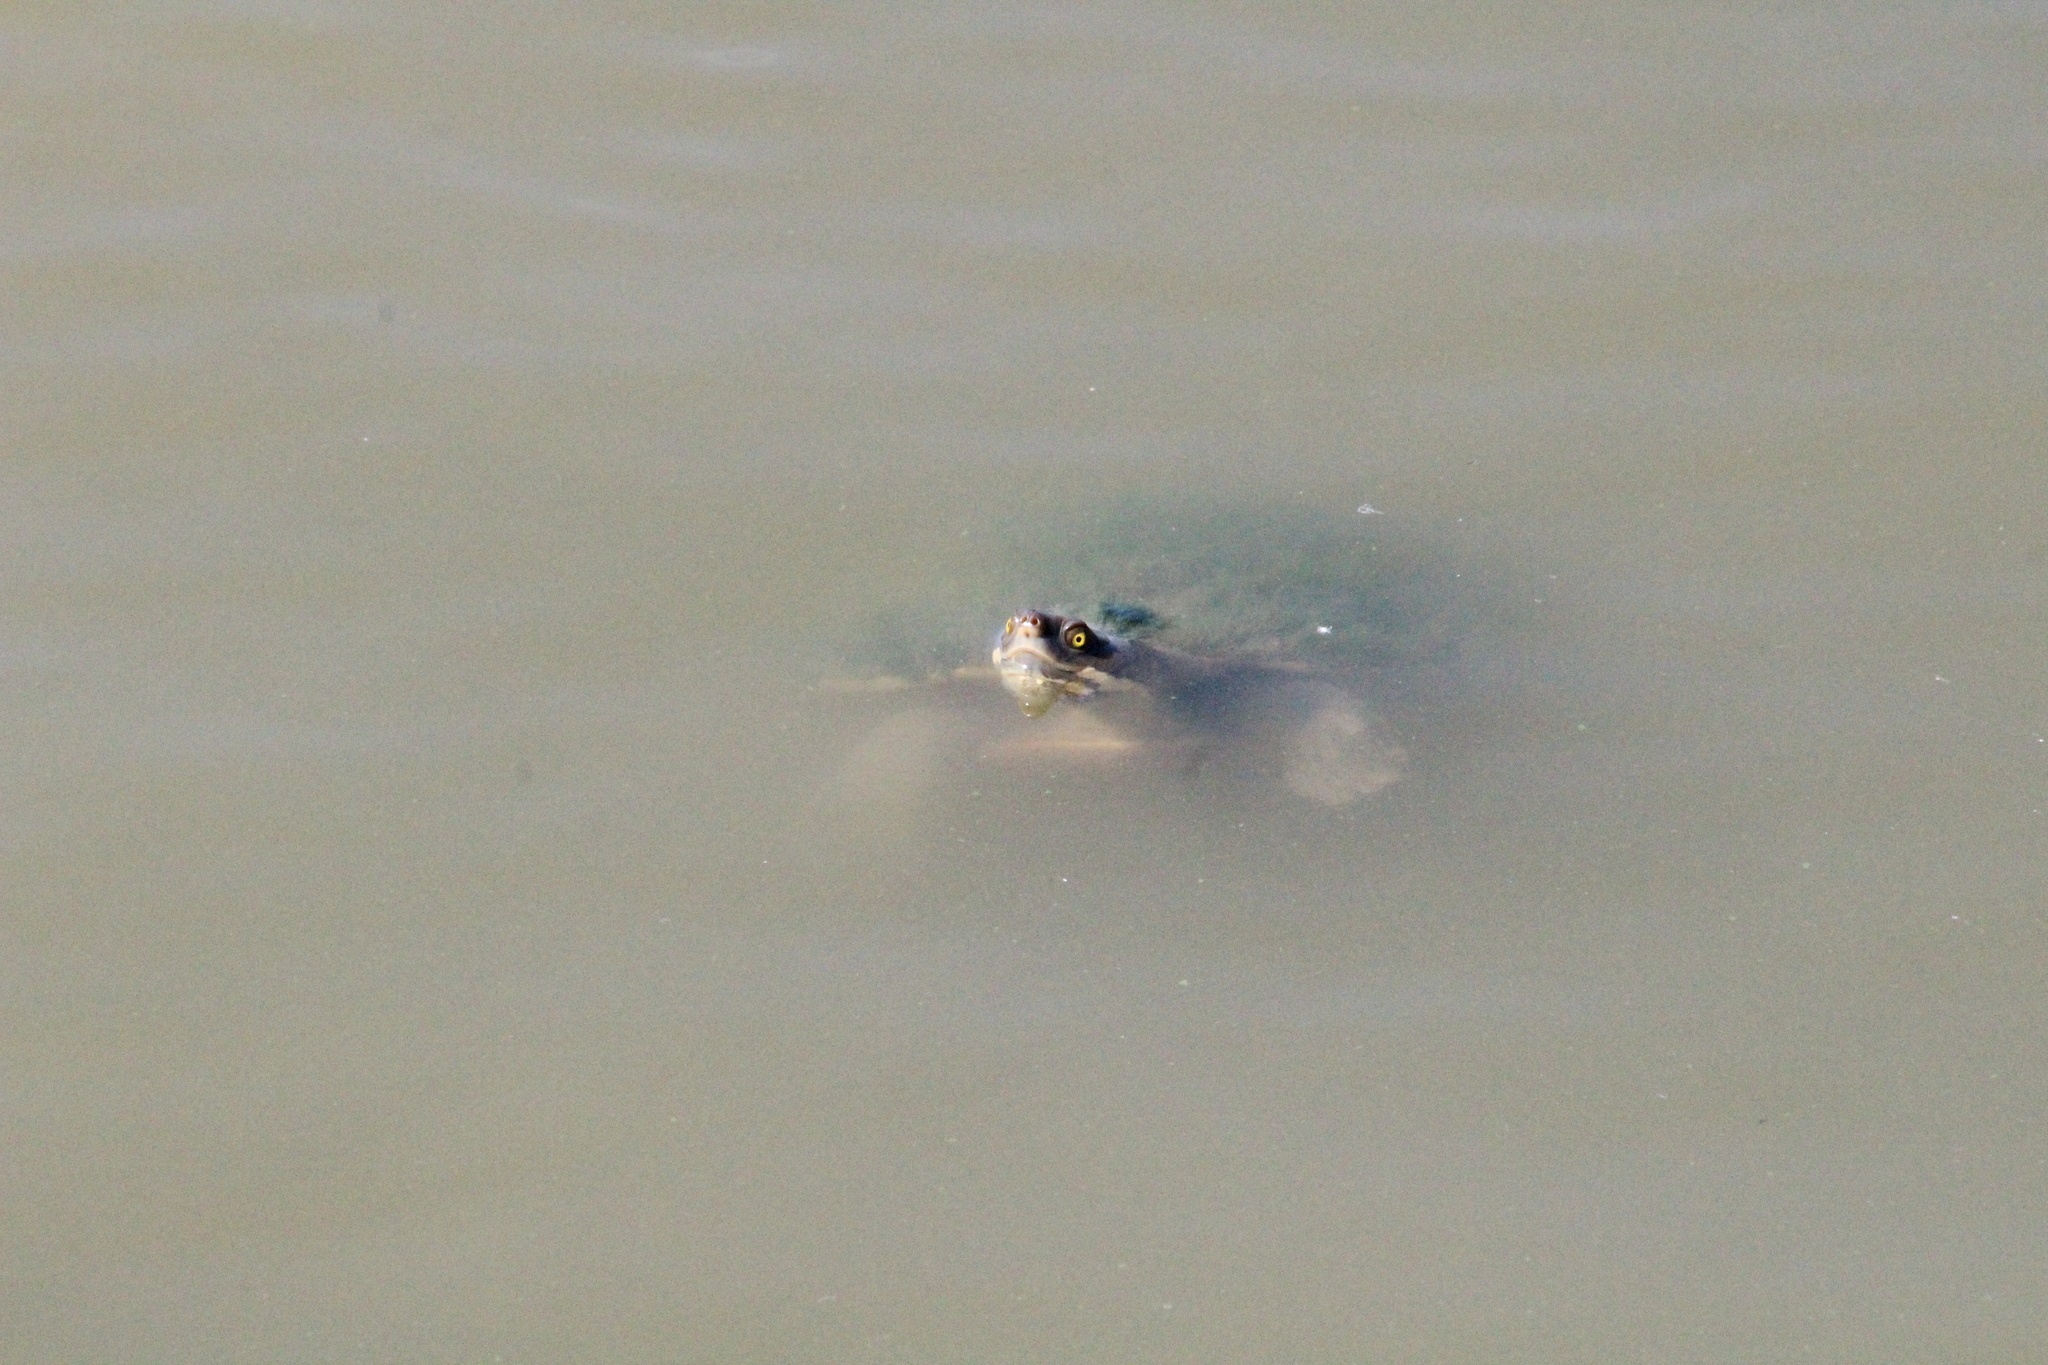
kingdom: Animalia
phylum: Chordata
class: Testudines
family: Chelidae
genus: Emydura
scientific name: Emydura macquarii
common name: Murray river turtle
